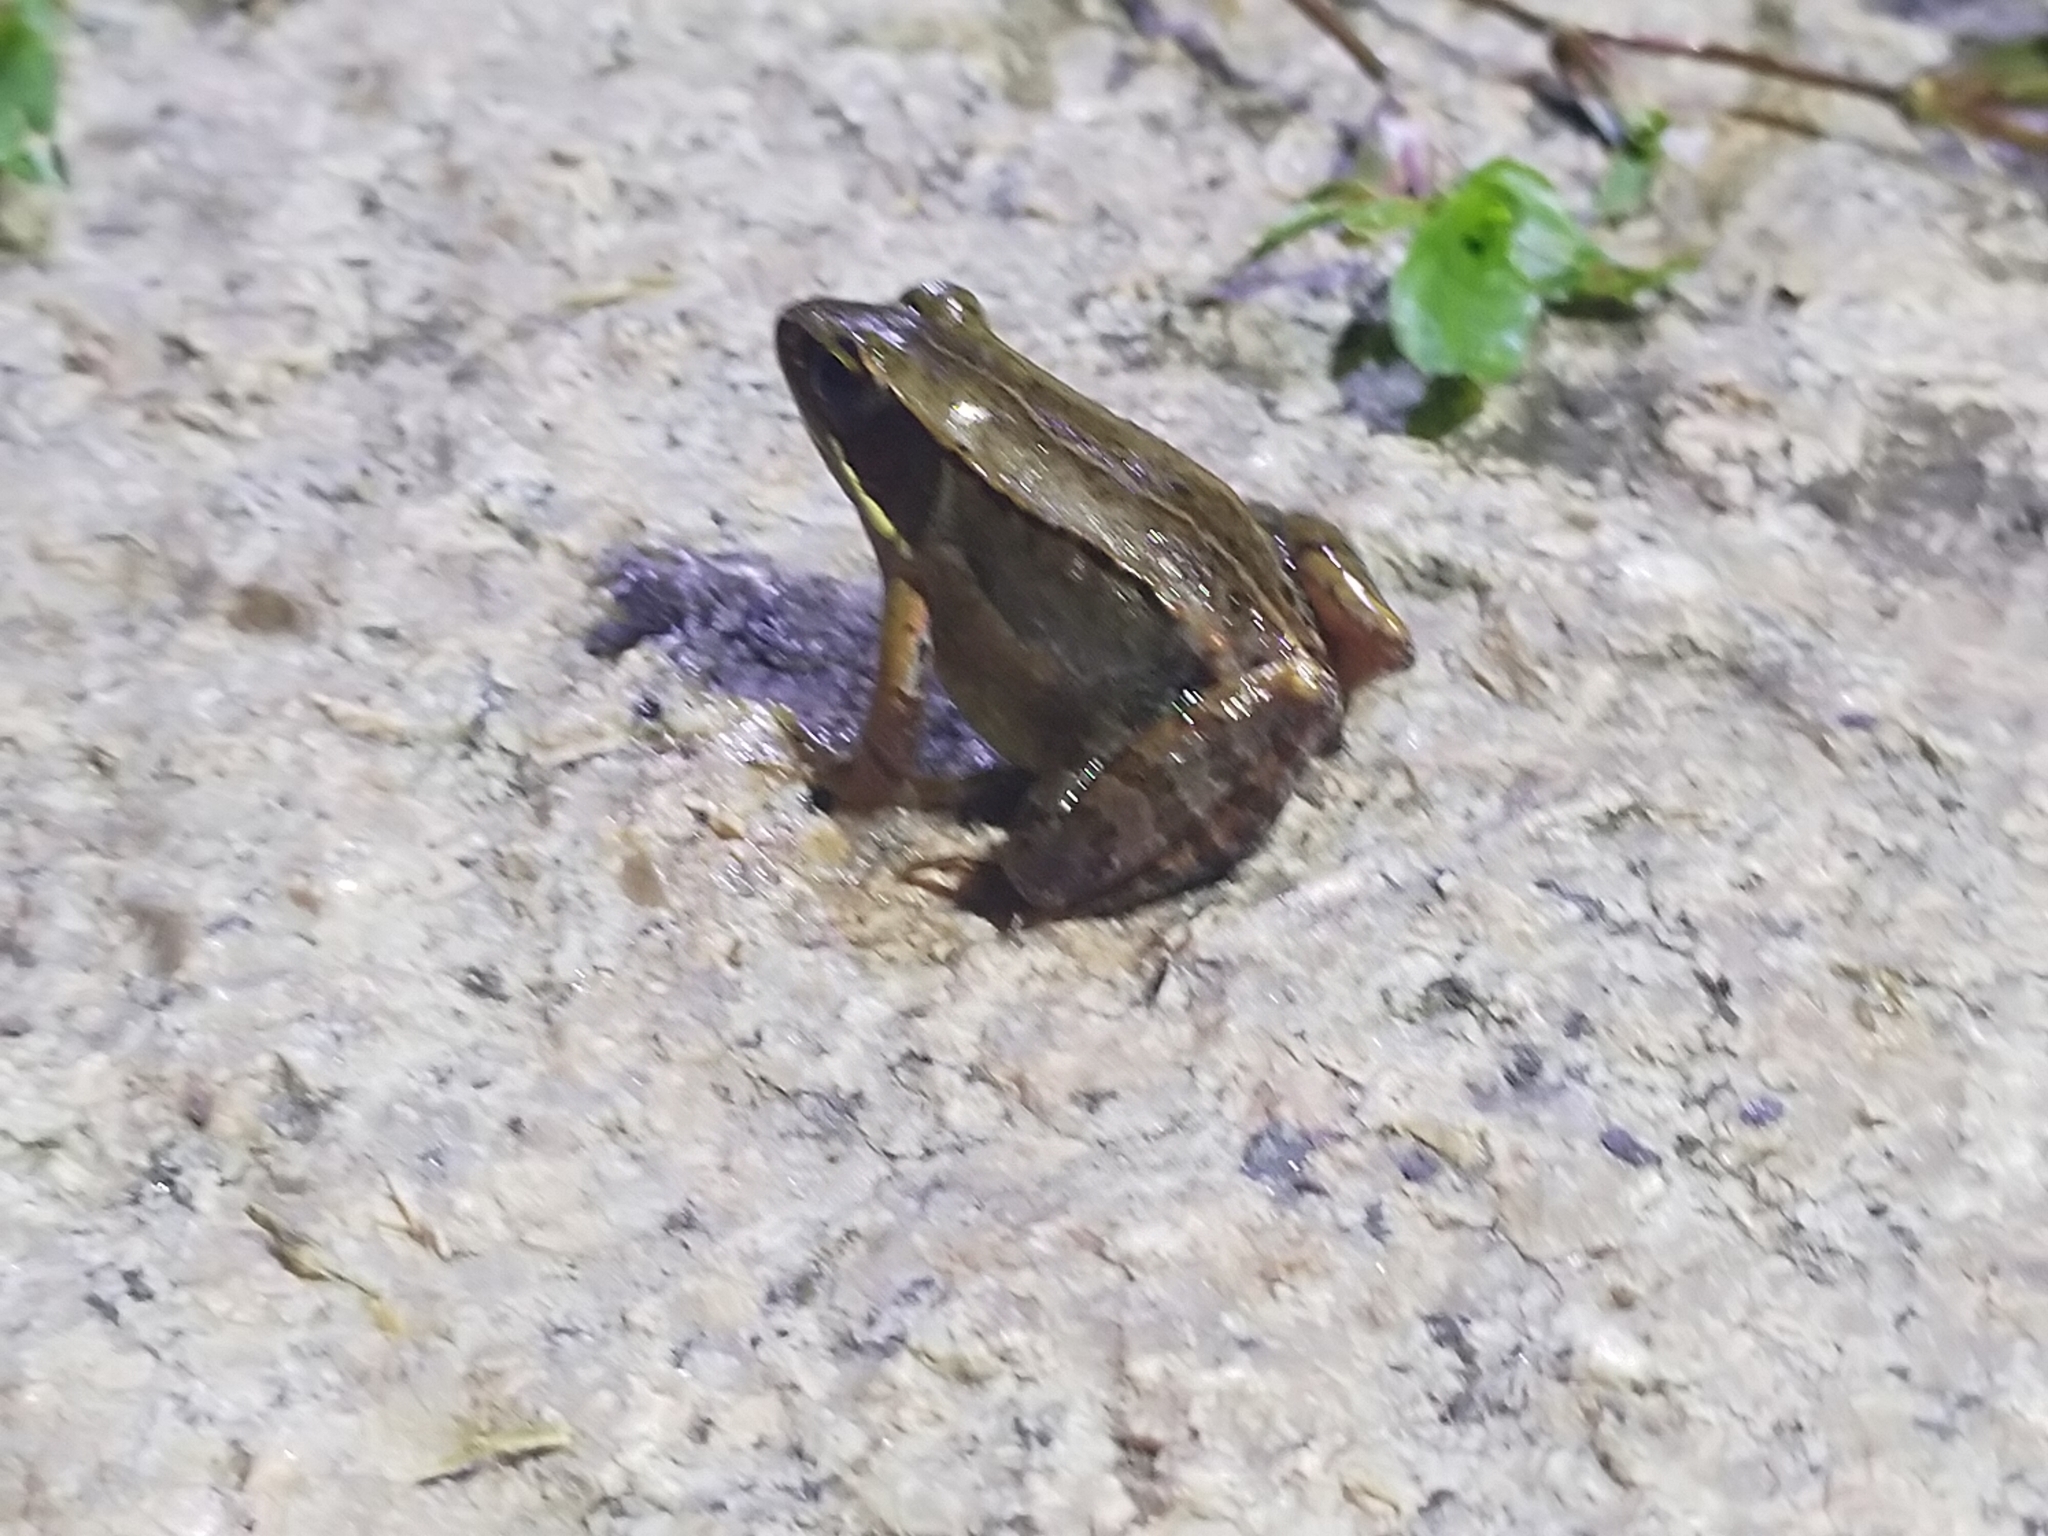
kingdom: Animalia
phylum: Chordata
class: Amphibia
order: Anura
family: Ranidae
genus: Nidirana
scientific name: Nidirana okinavana
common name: Yaeyama harpist frog
